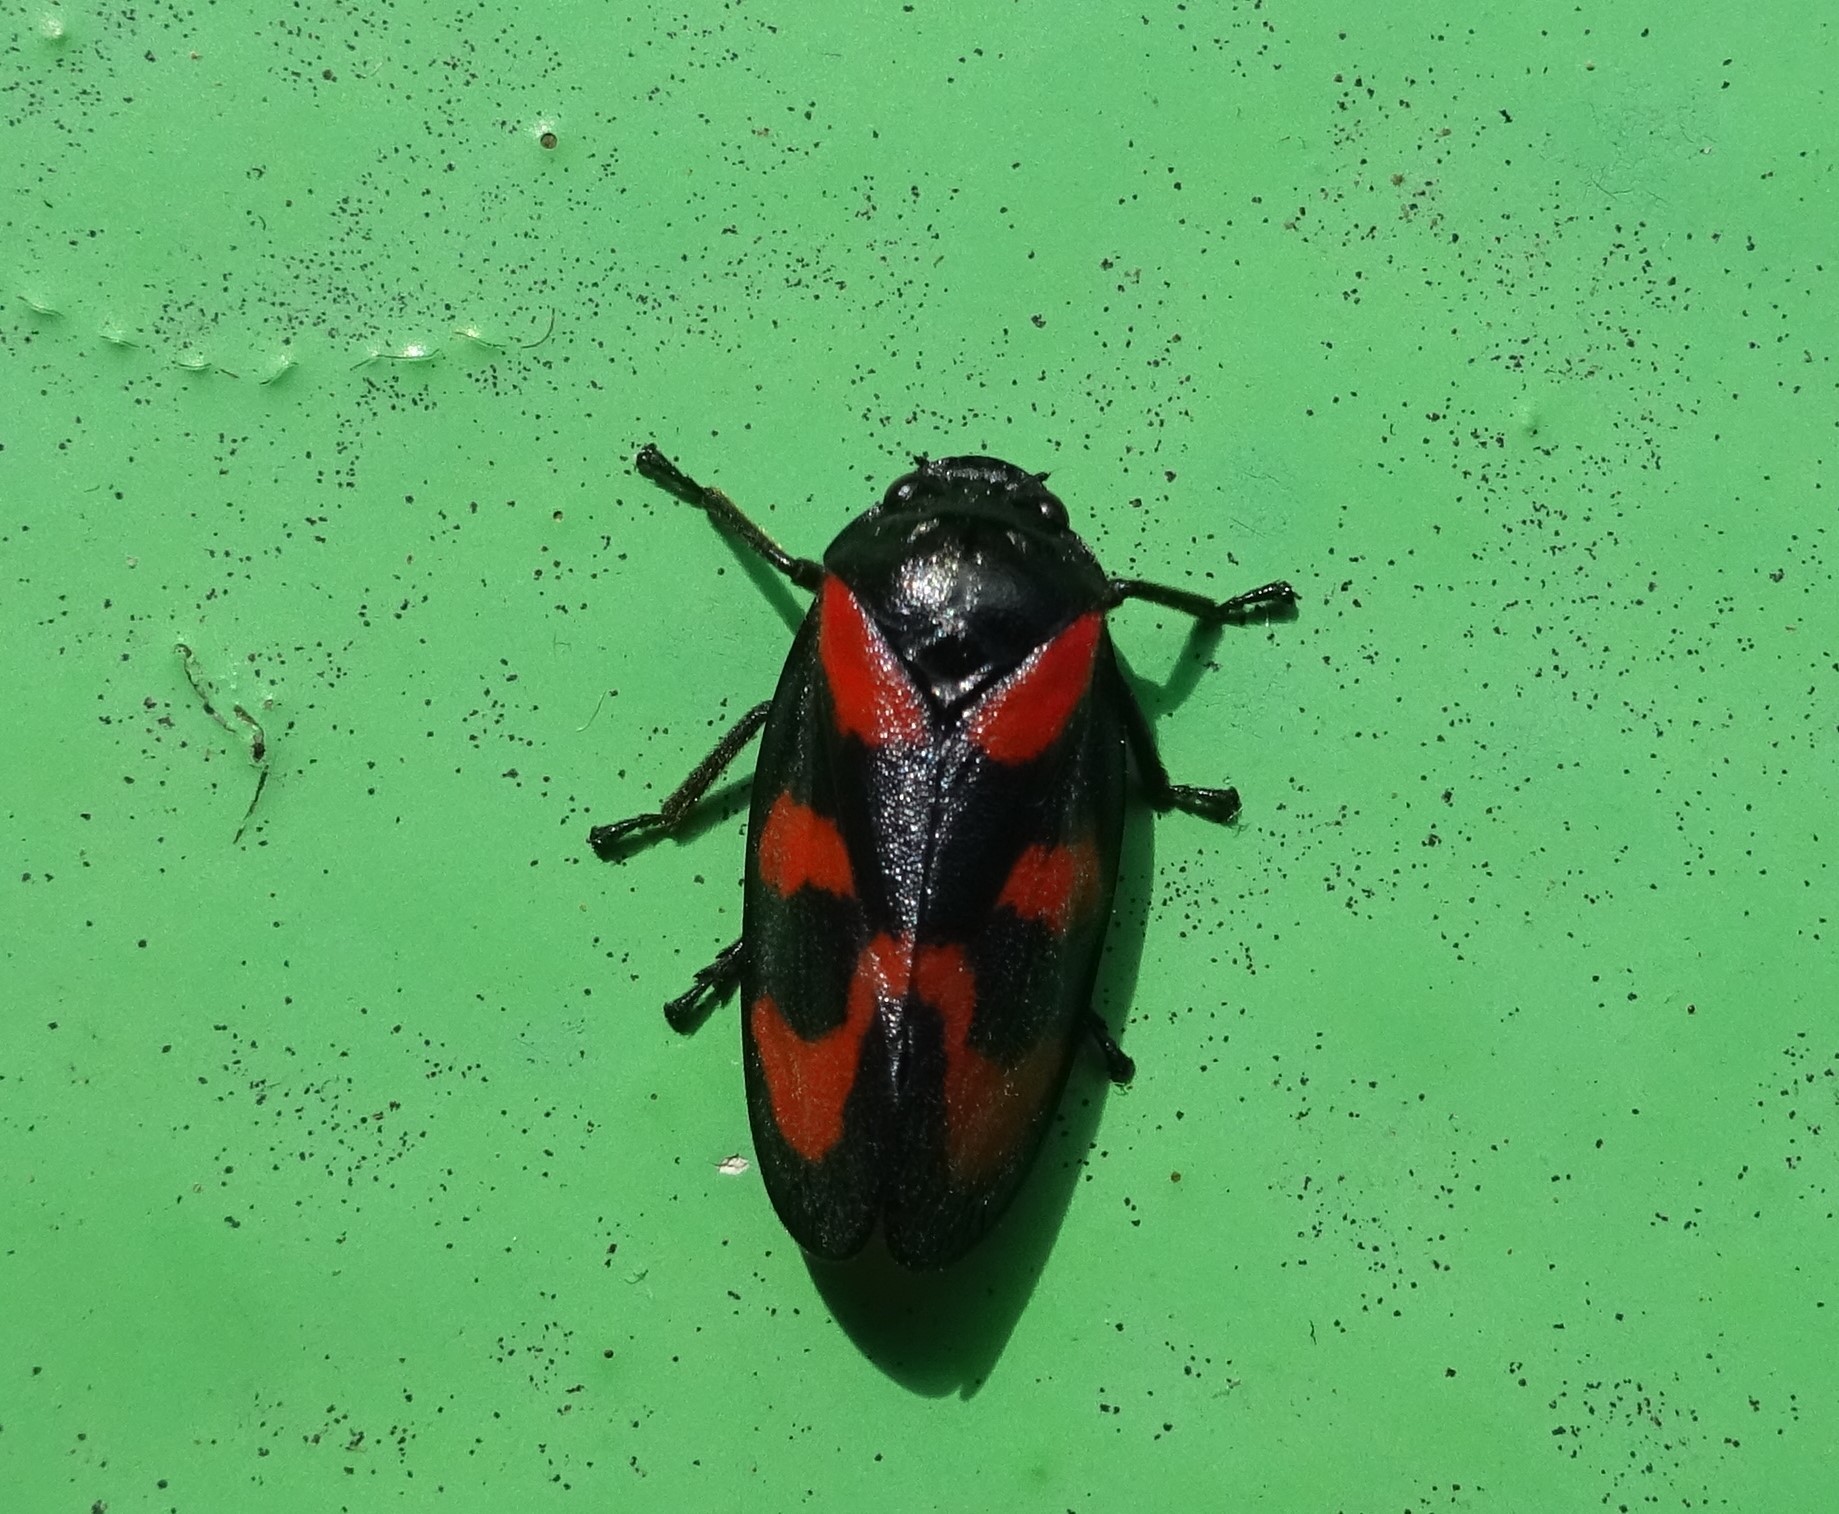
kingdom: Animalia
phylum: Arthropoda
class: Insecta
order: Hemiptera
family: Cercopidae
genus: Cercopis
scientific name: Cercopis vulnerata
